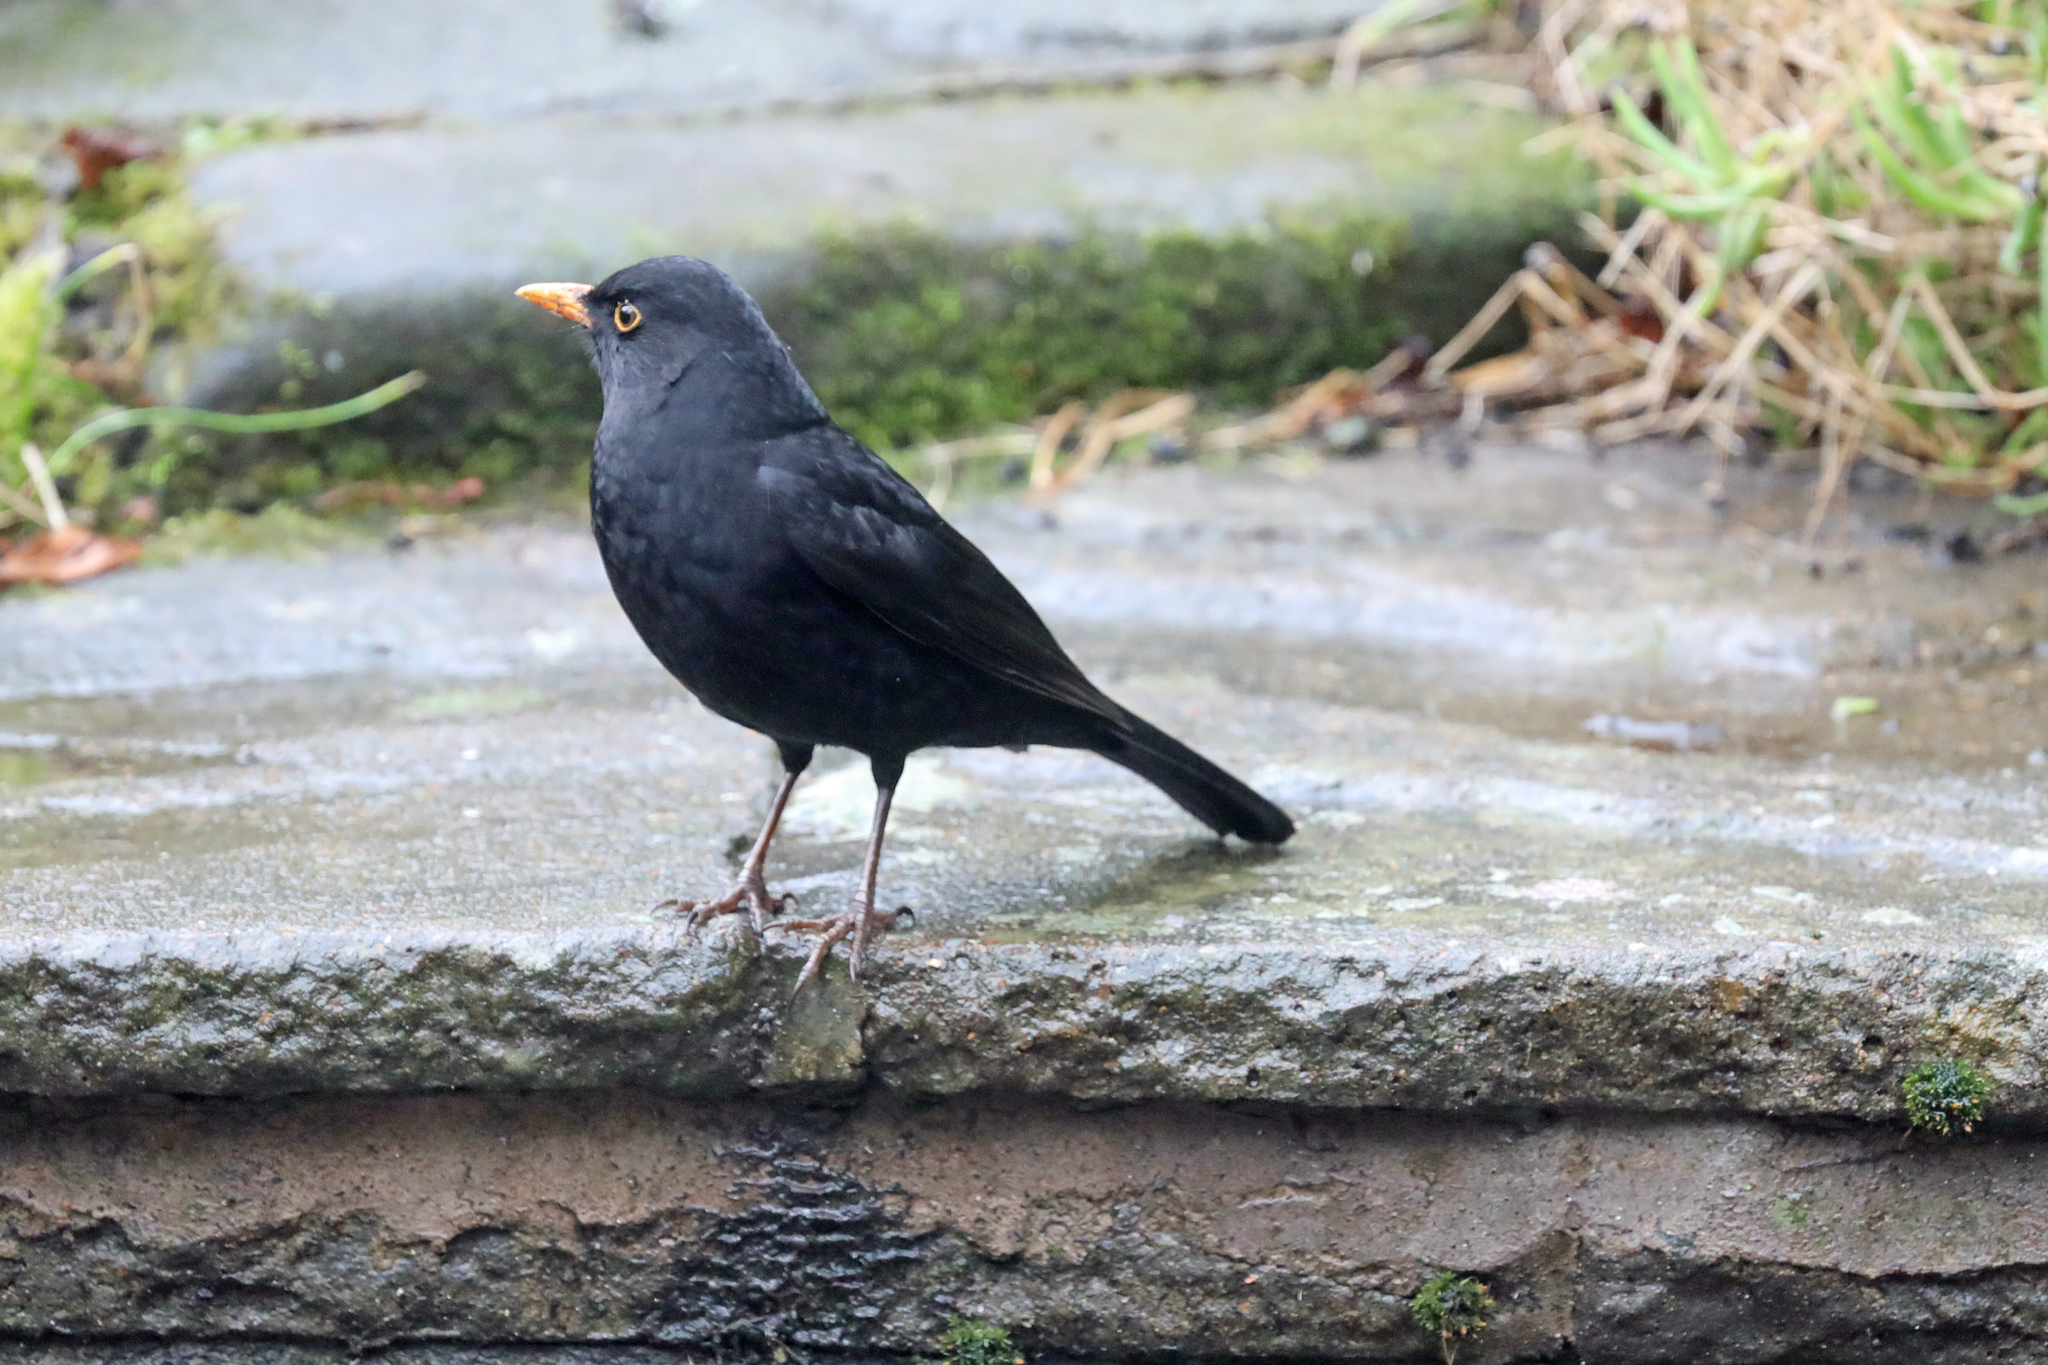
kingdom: Animalia
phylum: Chordata
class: Aves
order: Passeriformes
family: Turdidae
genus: Turdus
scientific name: Turdus merula
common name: Common blackbird
